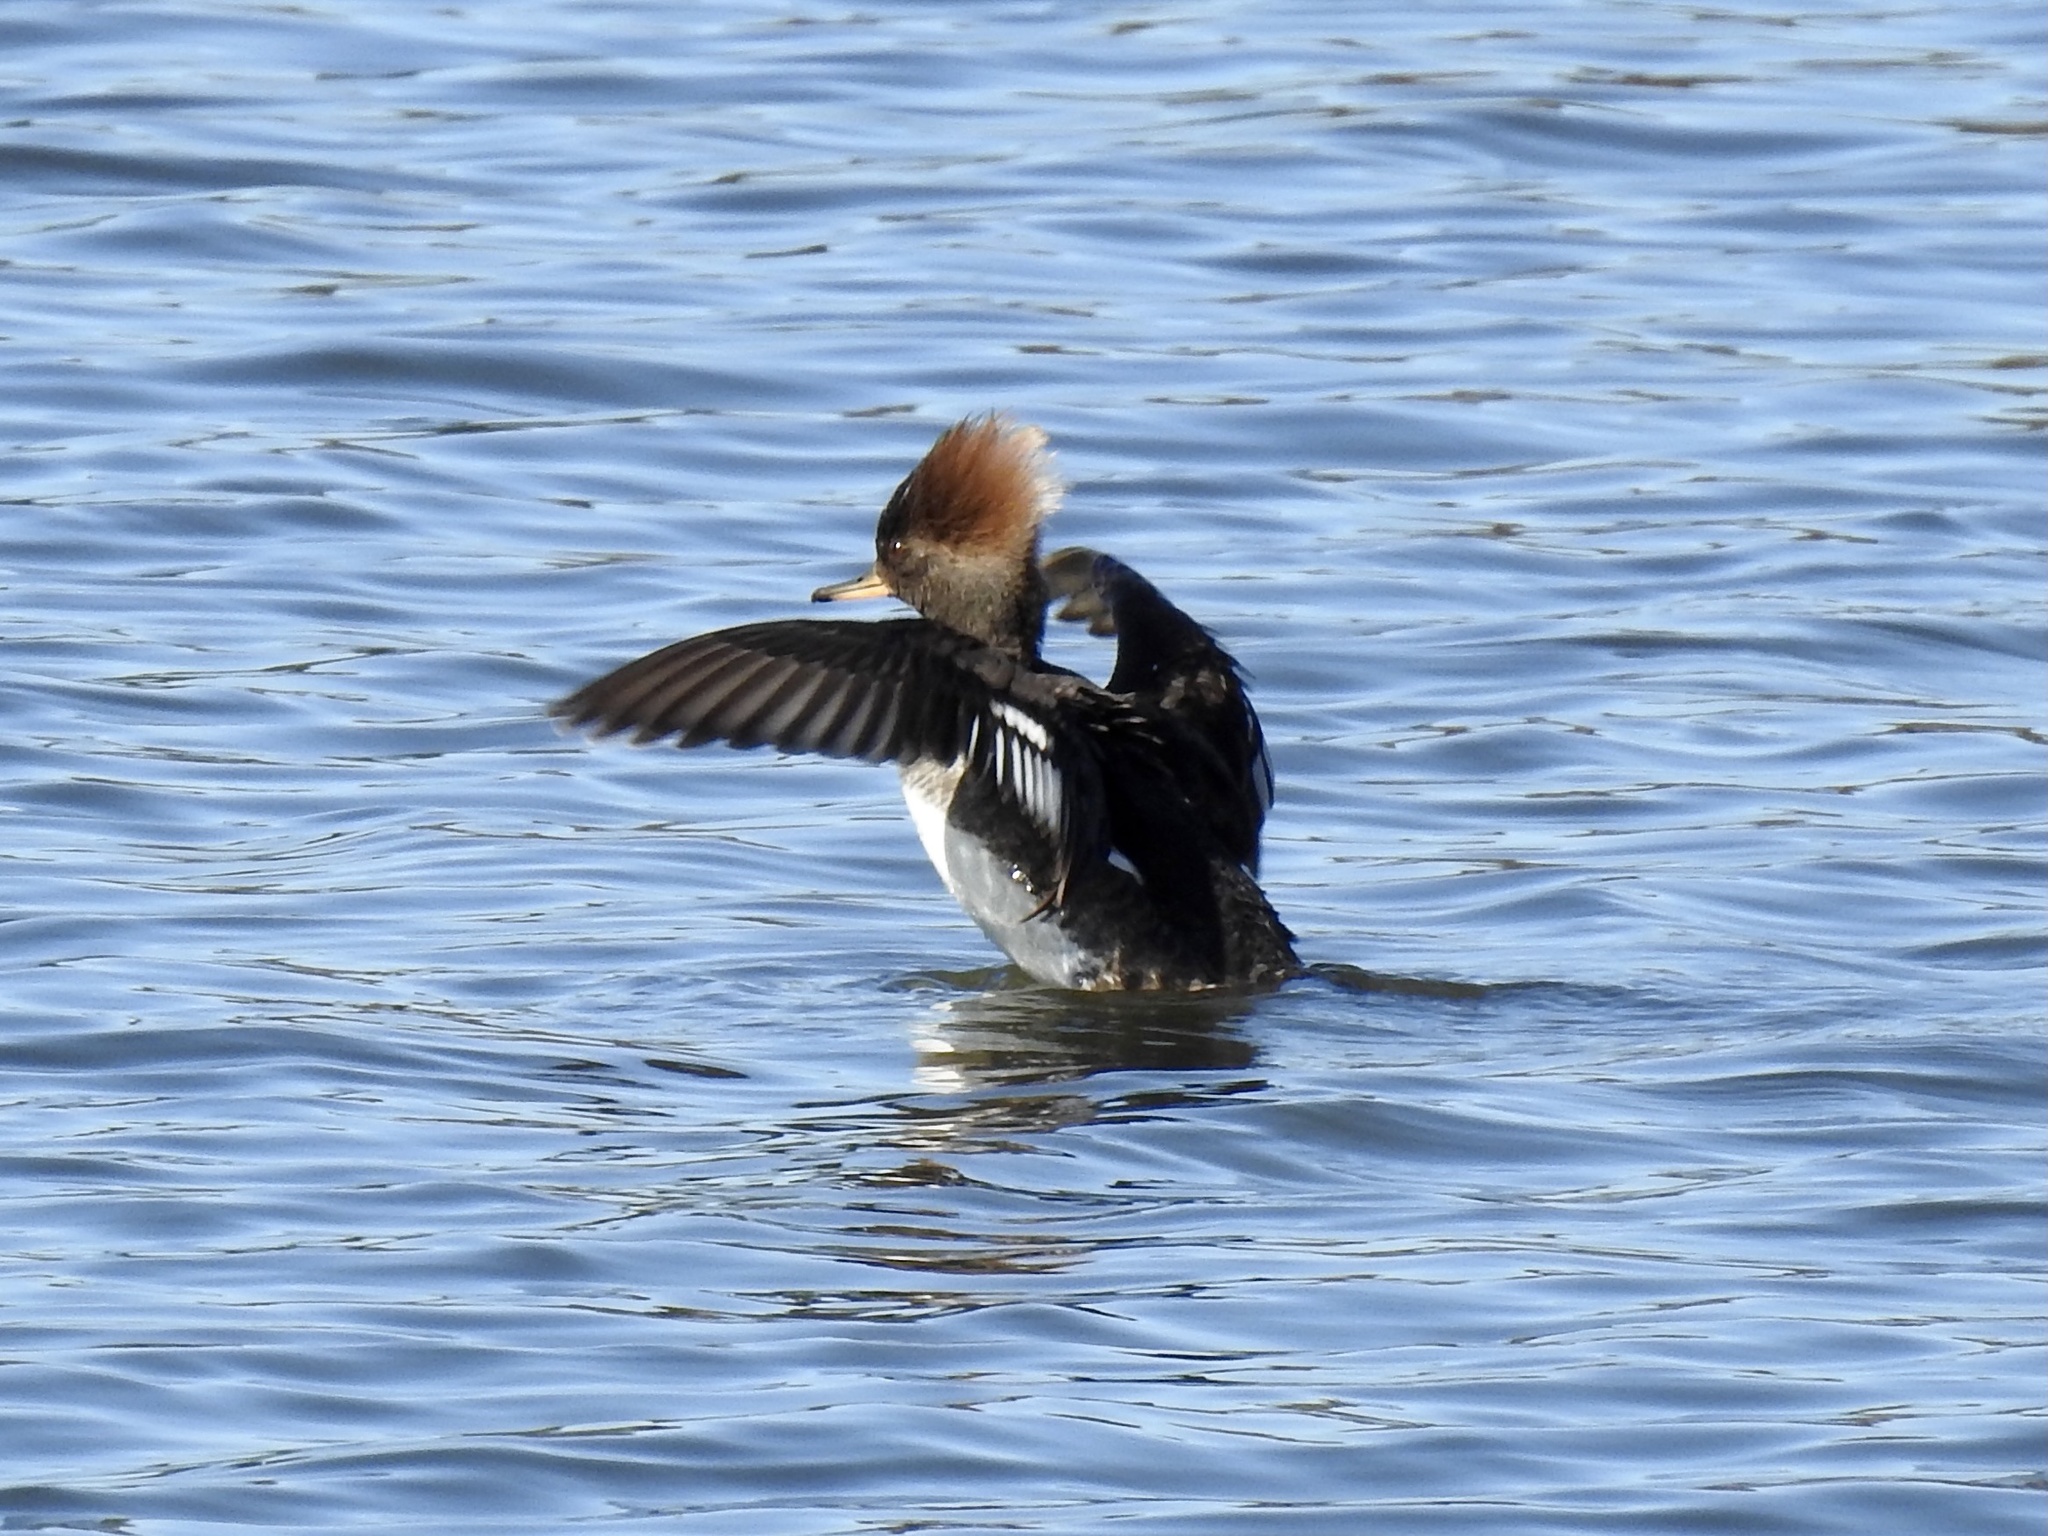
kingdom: Animalia
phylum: Chordata
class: Aves
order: Anseriformes
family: Anatidae
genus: Lophodytes
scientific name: Lophodytes cucullatus
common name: Hooded merganser
